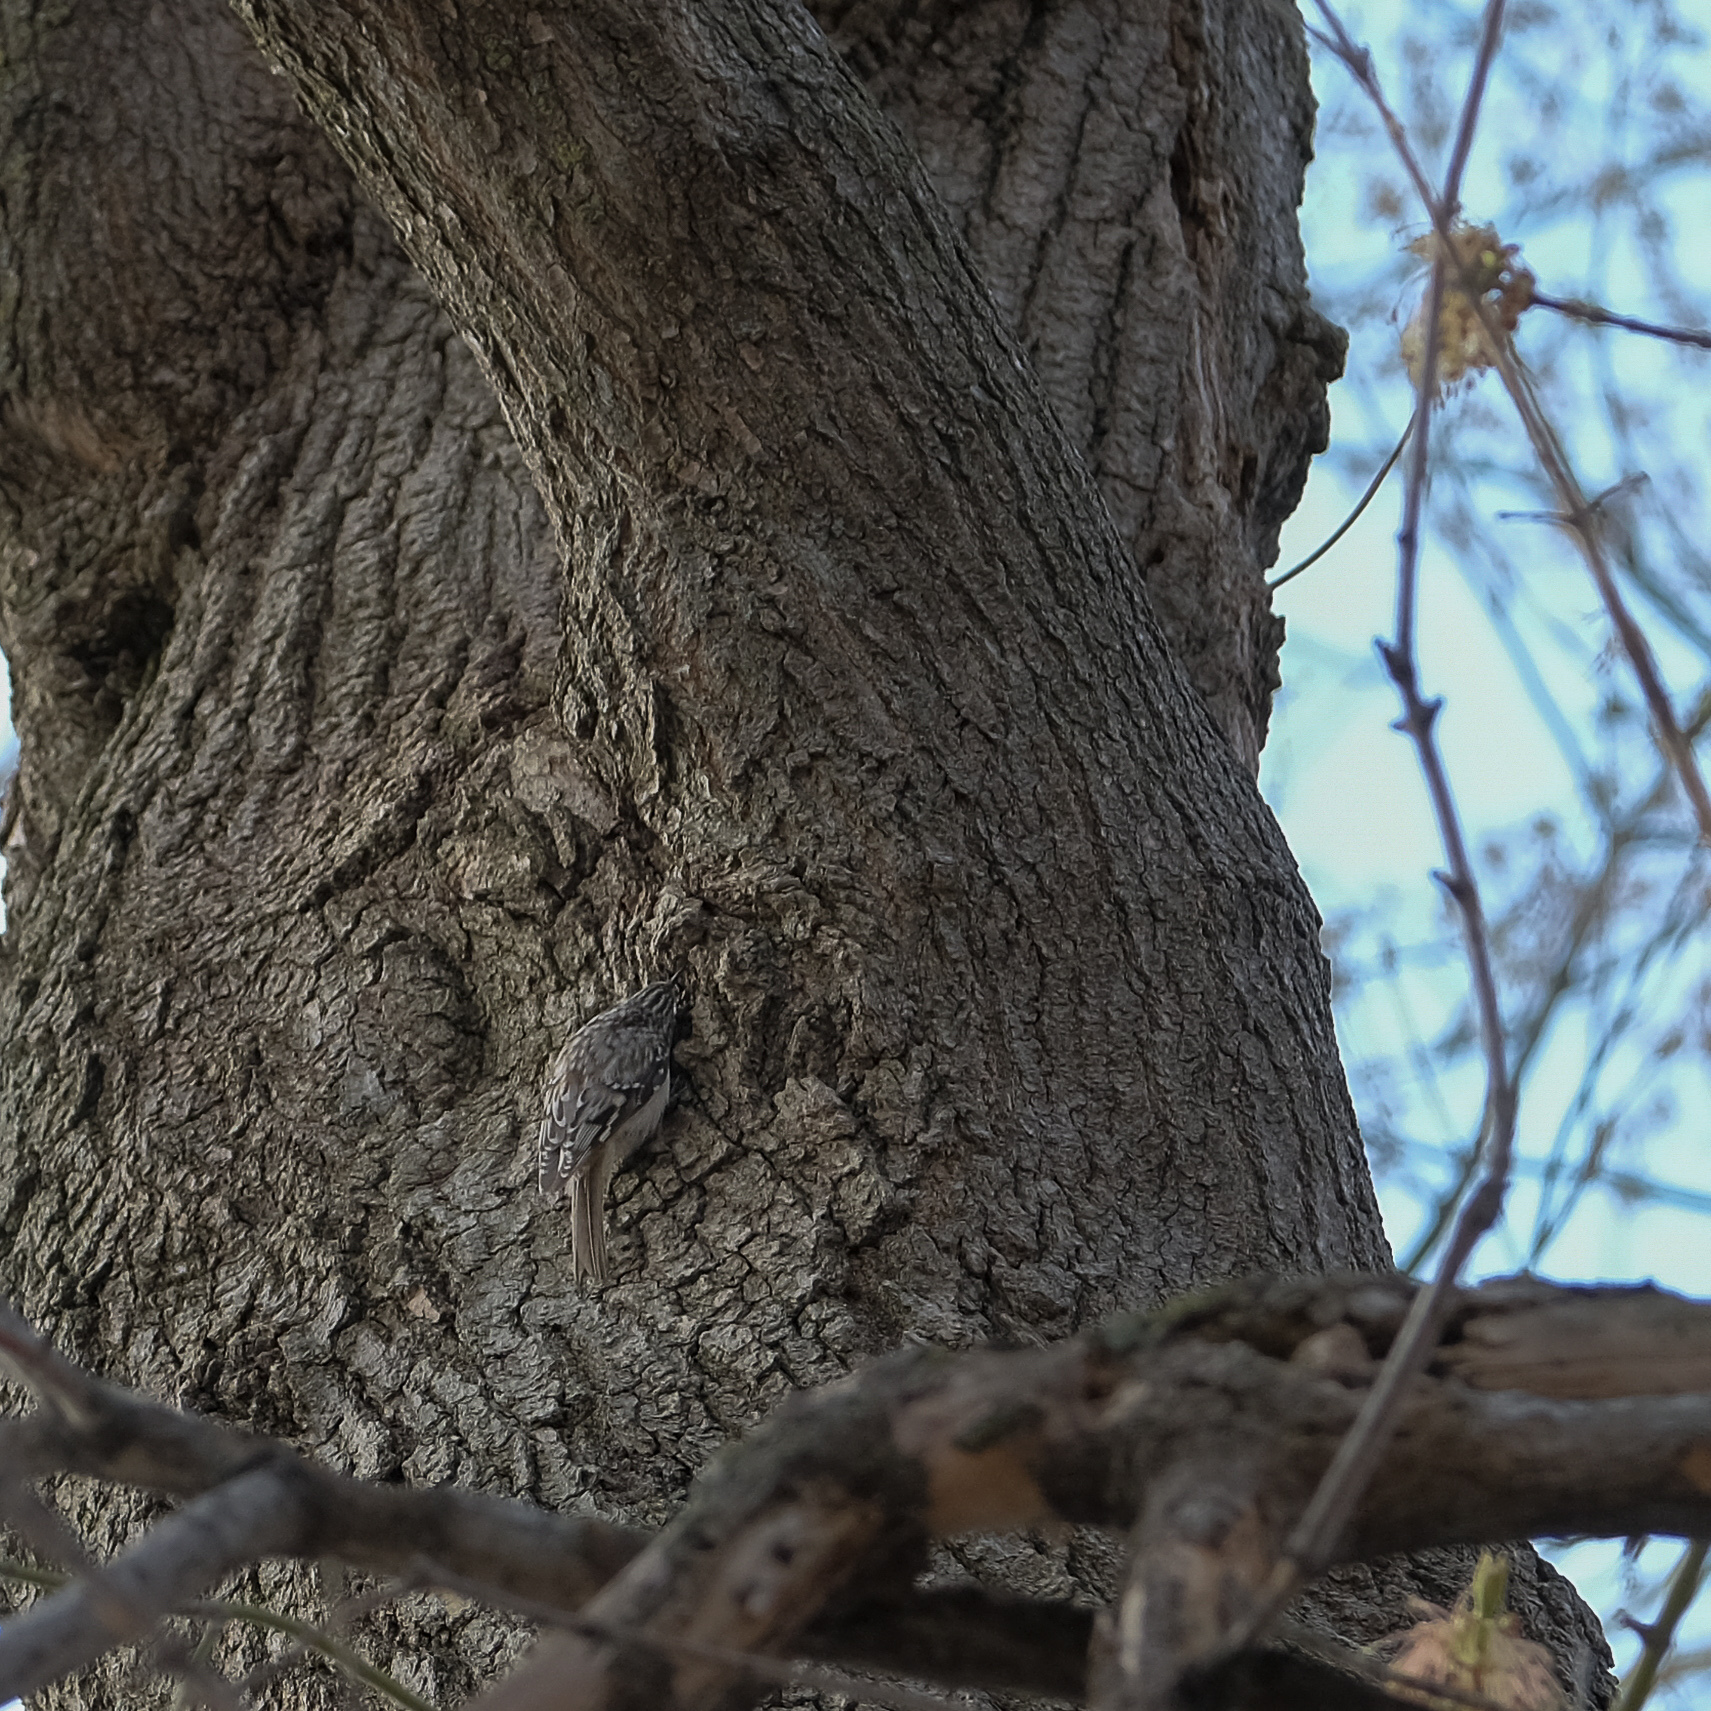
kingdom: Animalia
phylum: Chordata
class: Aves
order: Passeriformes
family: Certhiidae
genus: Certhia
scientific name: Certhia americana
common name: Brown creeper
